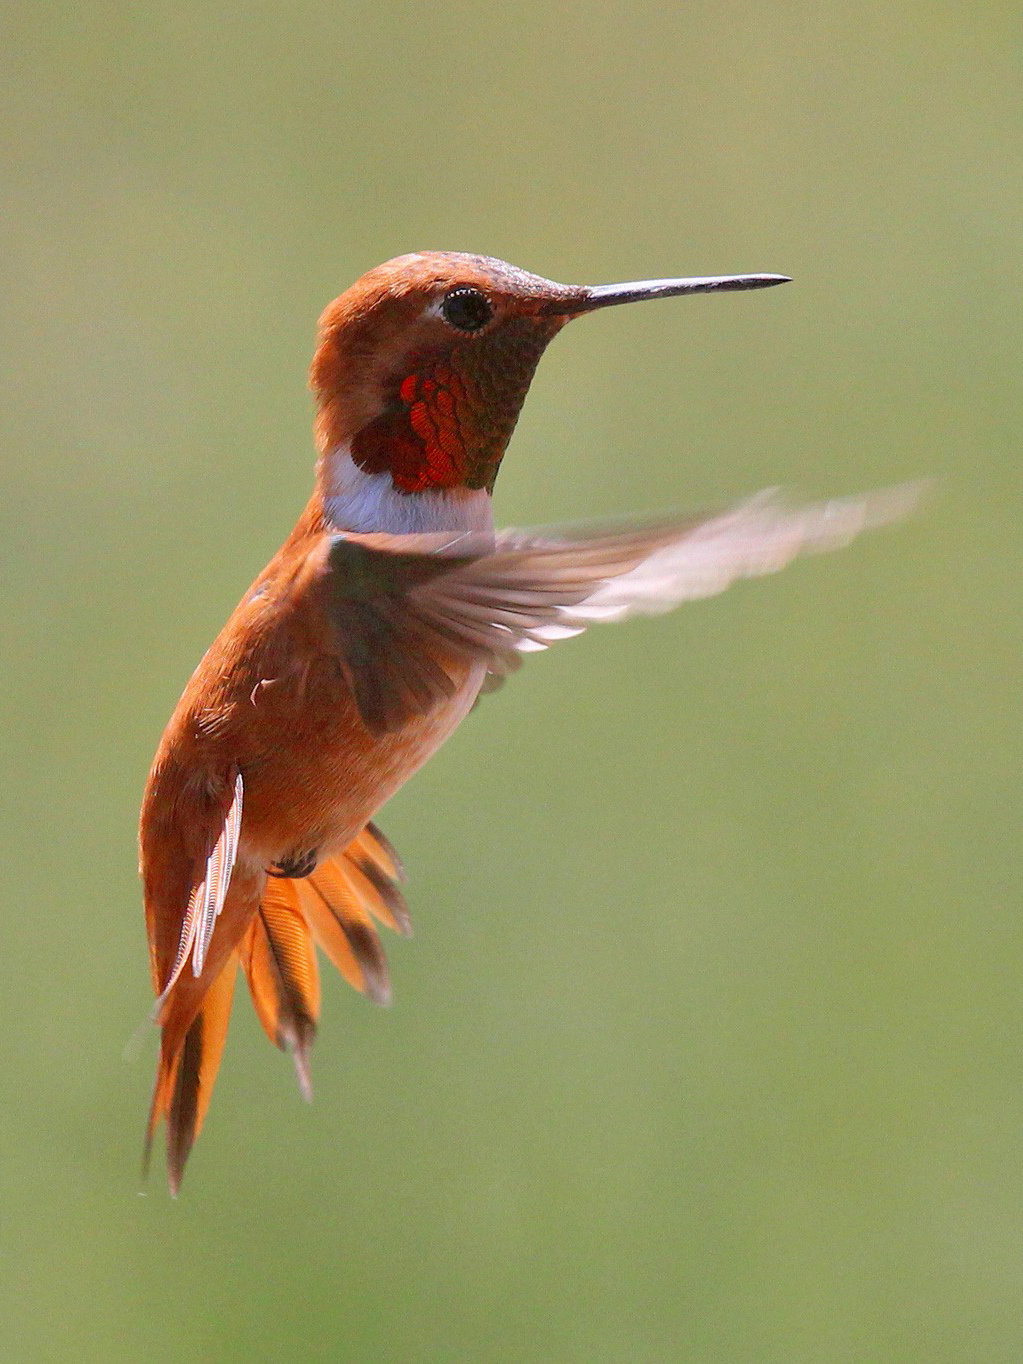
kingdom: Animalia
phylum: Chordata
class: Aves
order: Apodiformes
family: Trochilidae
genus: Selasphorus
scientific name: Selasphorus rufus
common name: Rufous hummingbird
